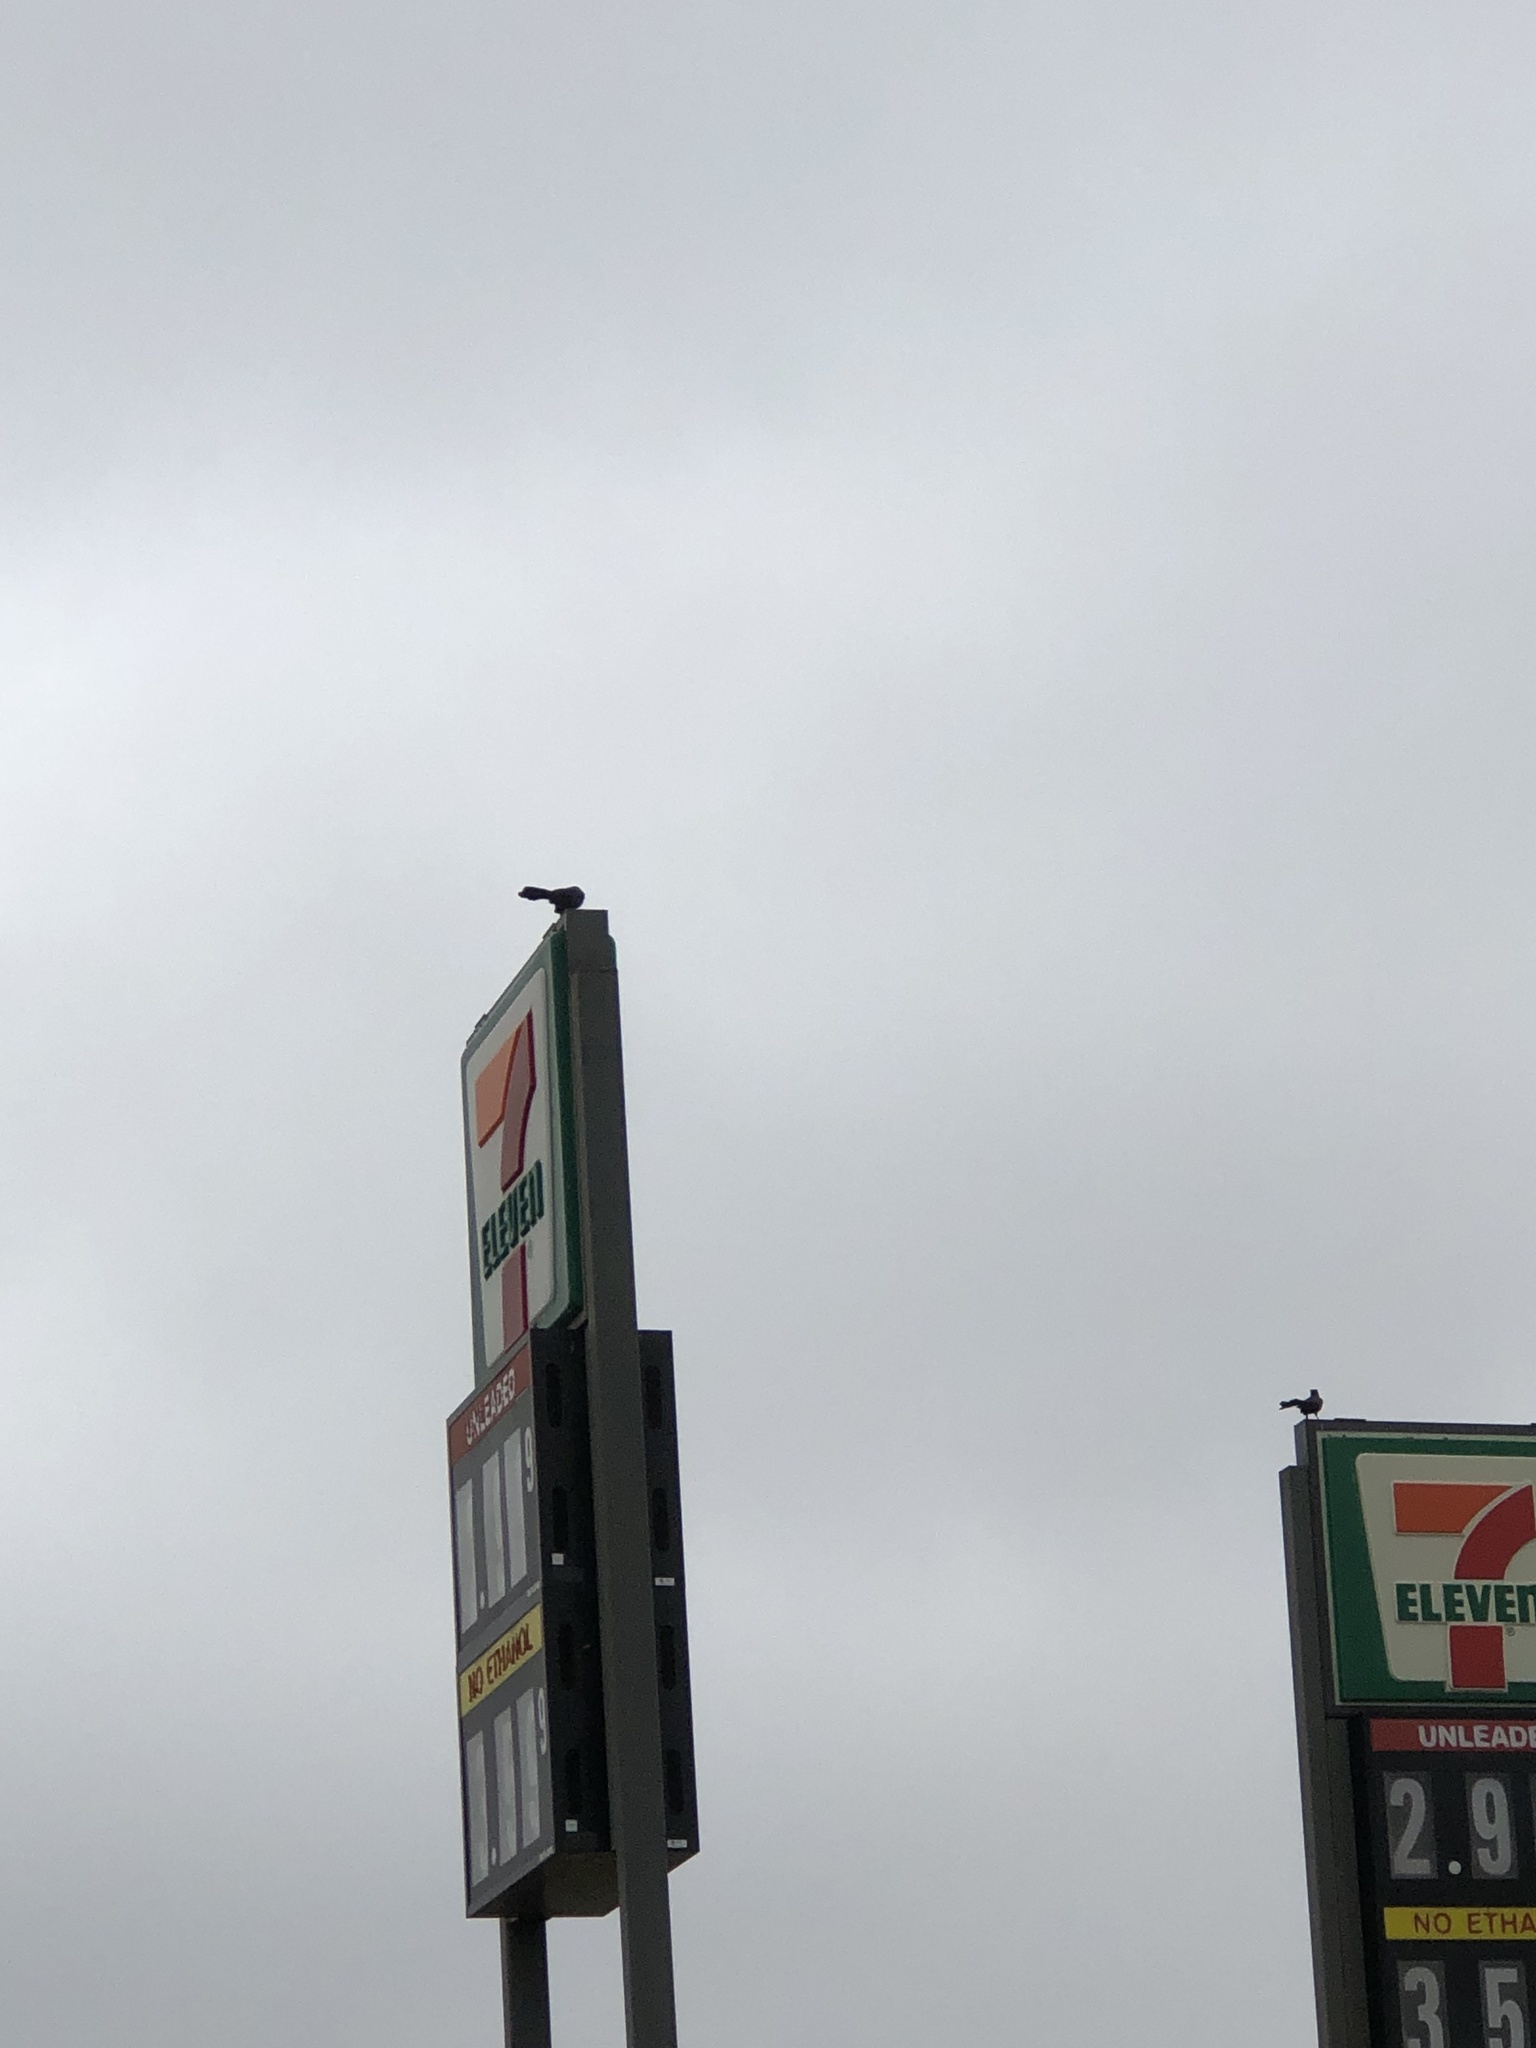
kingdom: Animalia
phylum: Chordata
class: Aves
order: Passeriformes
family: Icteridae
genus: Quiscalus
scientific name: Quiscalus mexicanus
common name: Great-tailed grackle
